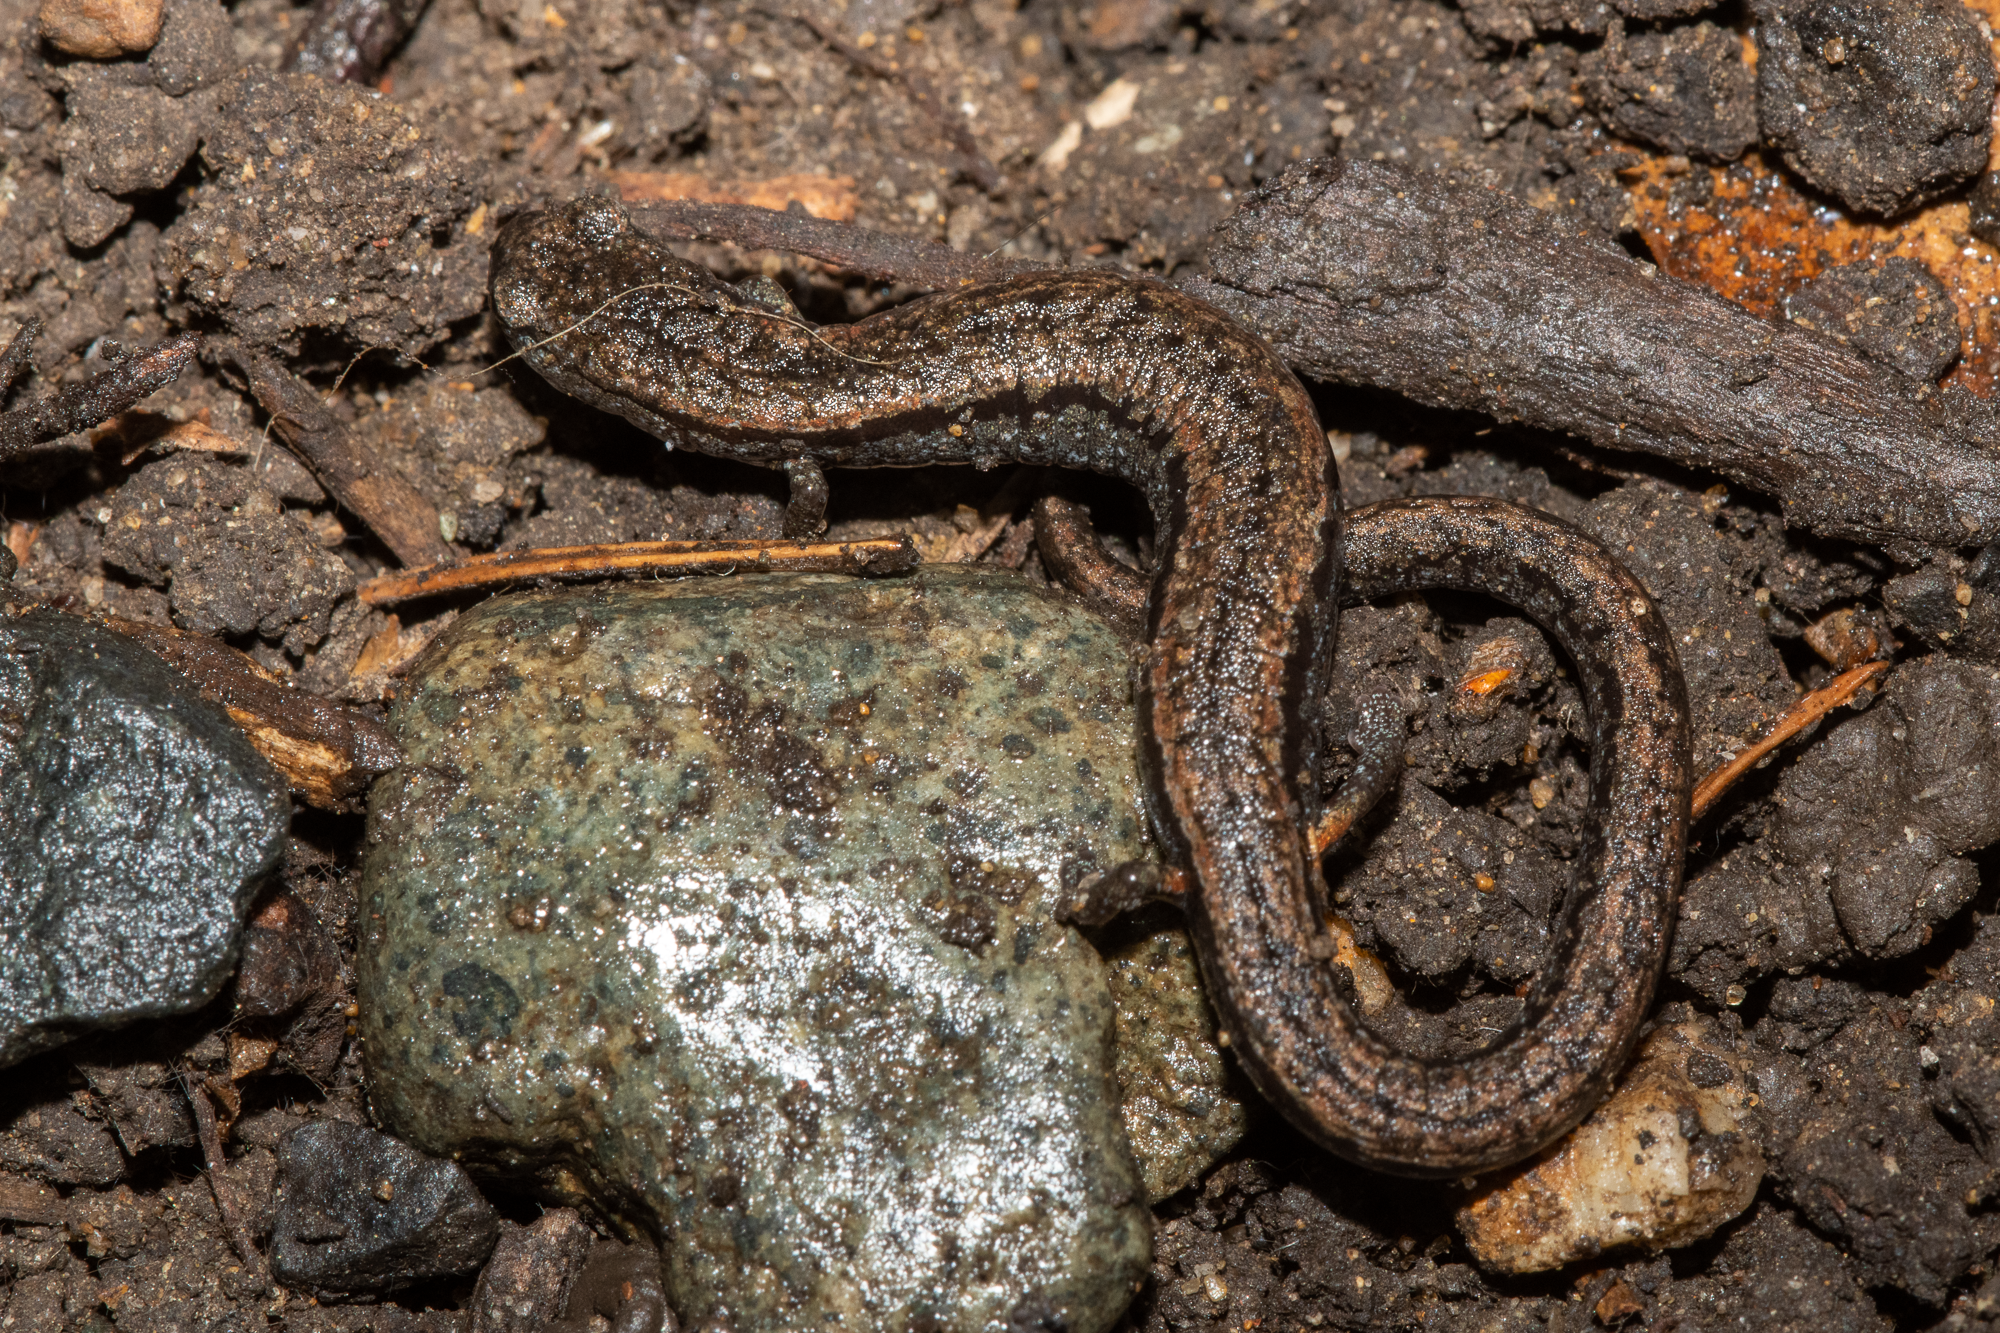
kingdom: Animalia
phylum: Chordata
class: Amphibia
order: Caudata
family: Plethodontidae
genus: Batrachoseps
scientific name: Batrachoseps attenuatus
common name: California slender salamander
